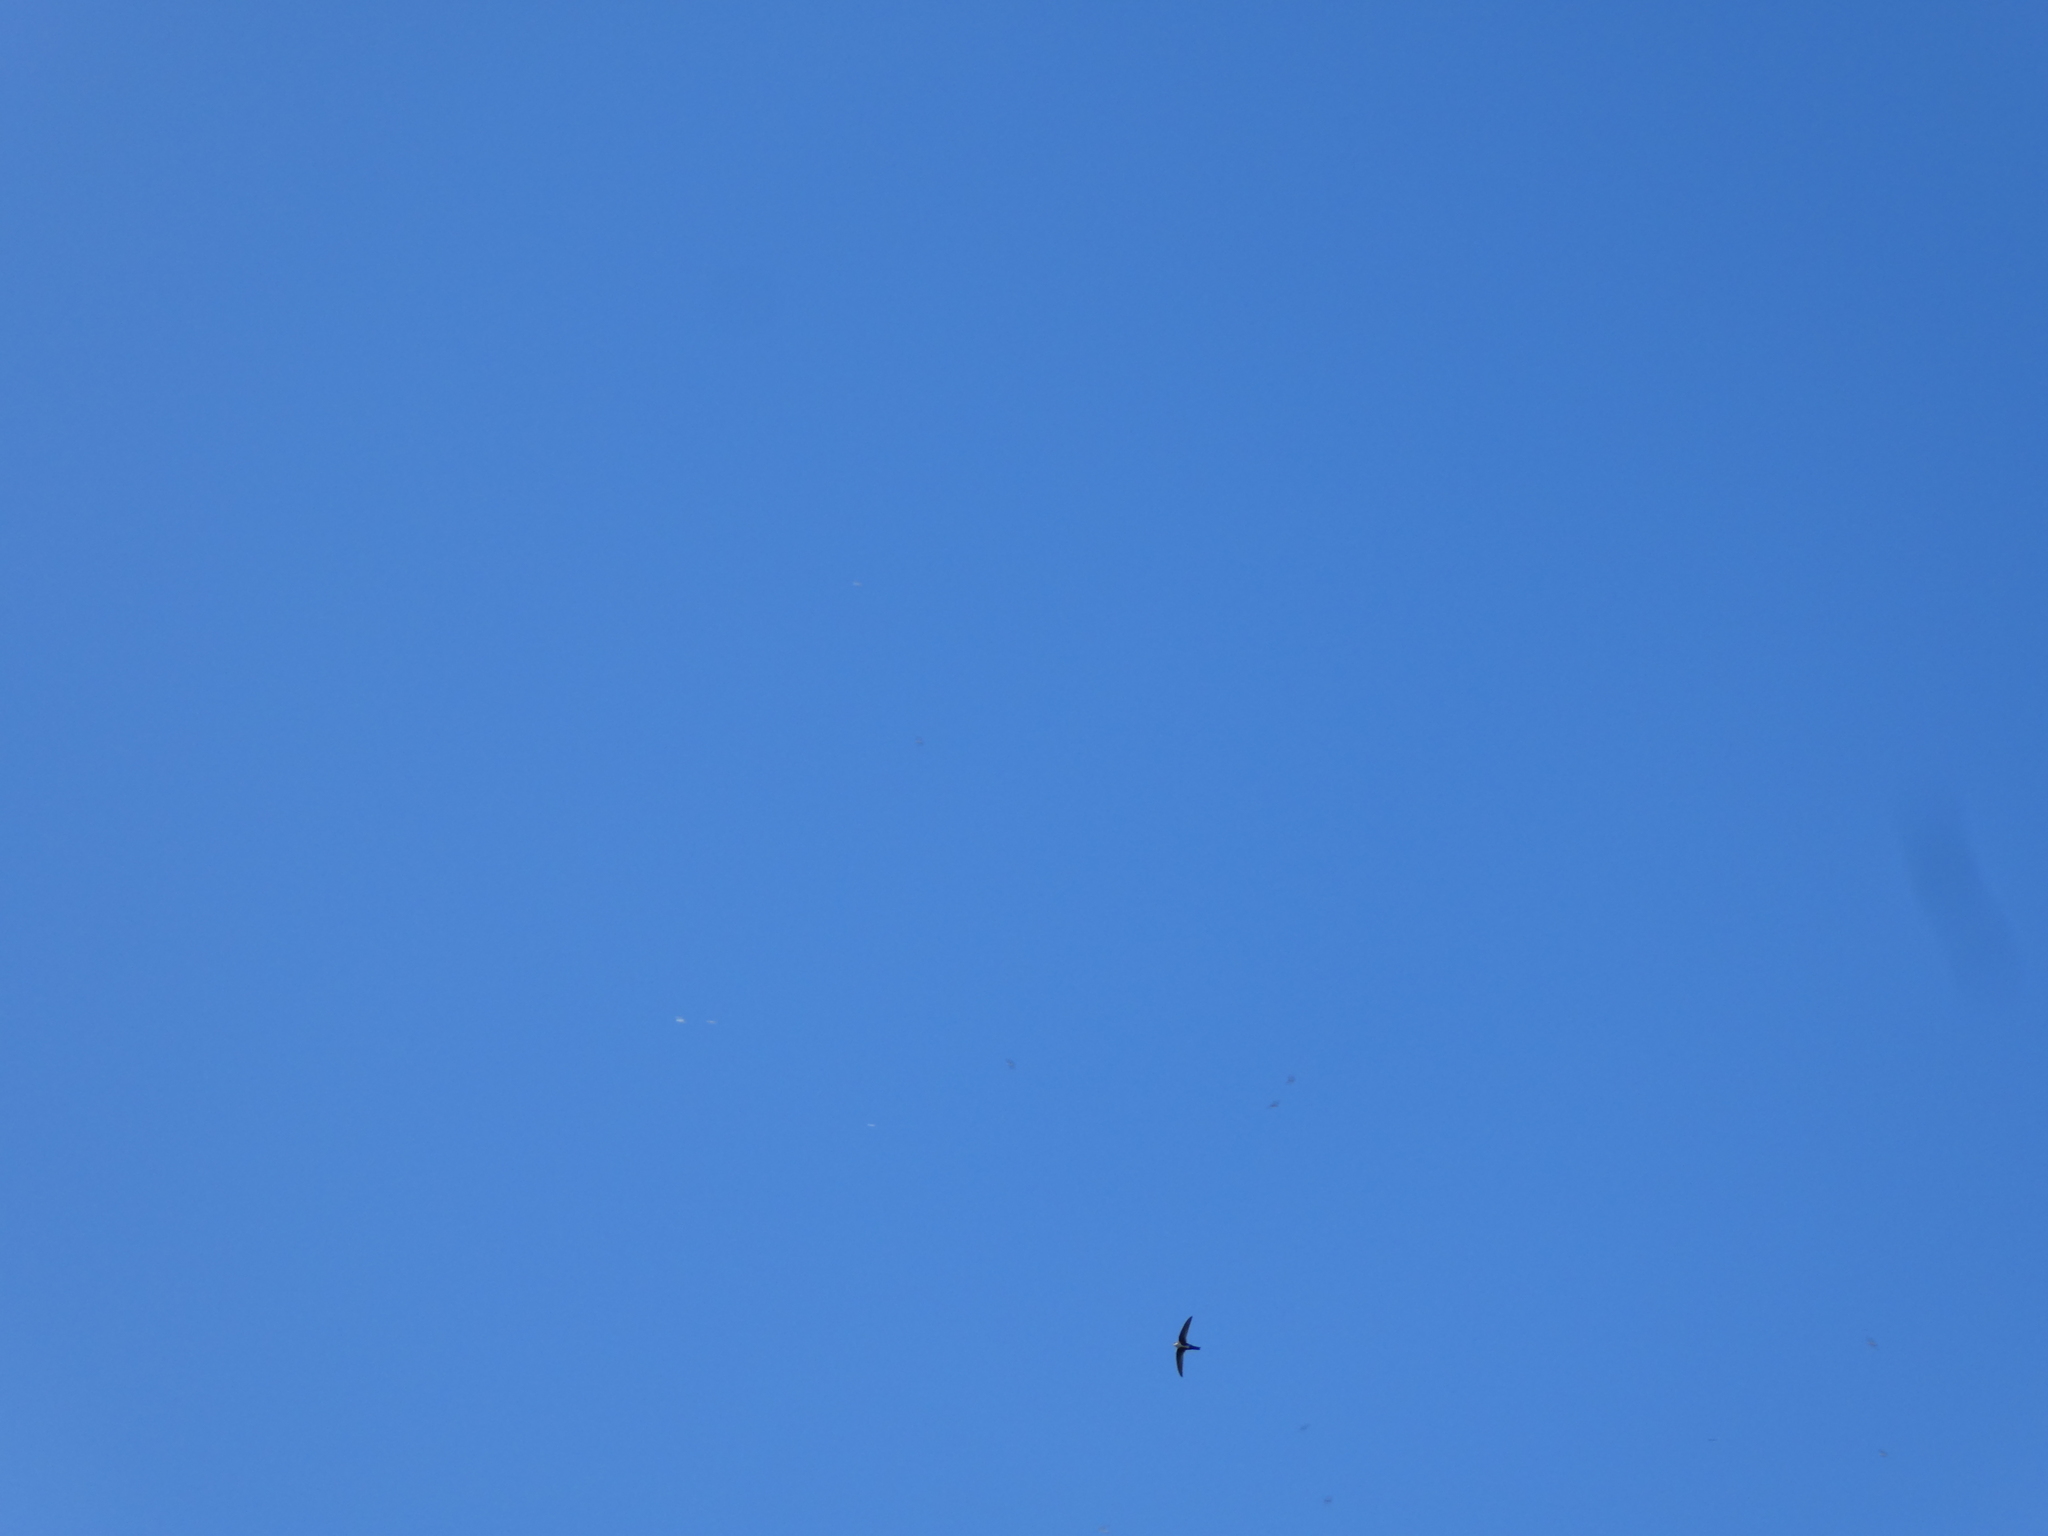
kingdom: Animalia
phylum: Chordata
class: Aves
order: Apodiformes
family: Apodidae
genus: Aeronautes
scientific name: Aeronautes saxatalis
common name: White-throated swift
